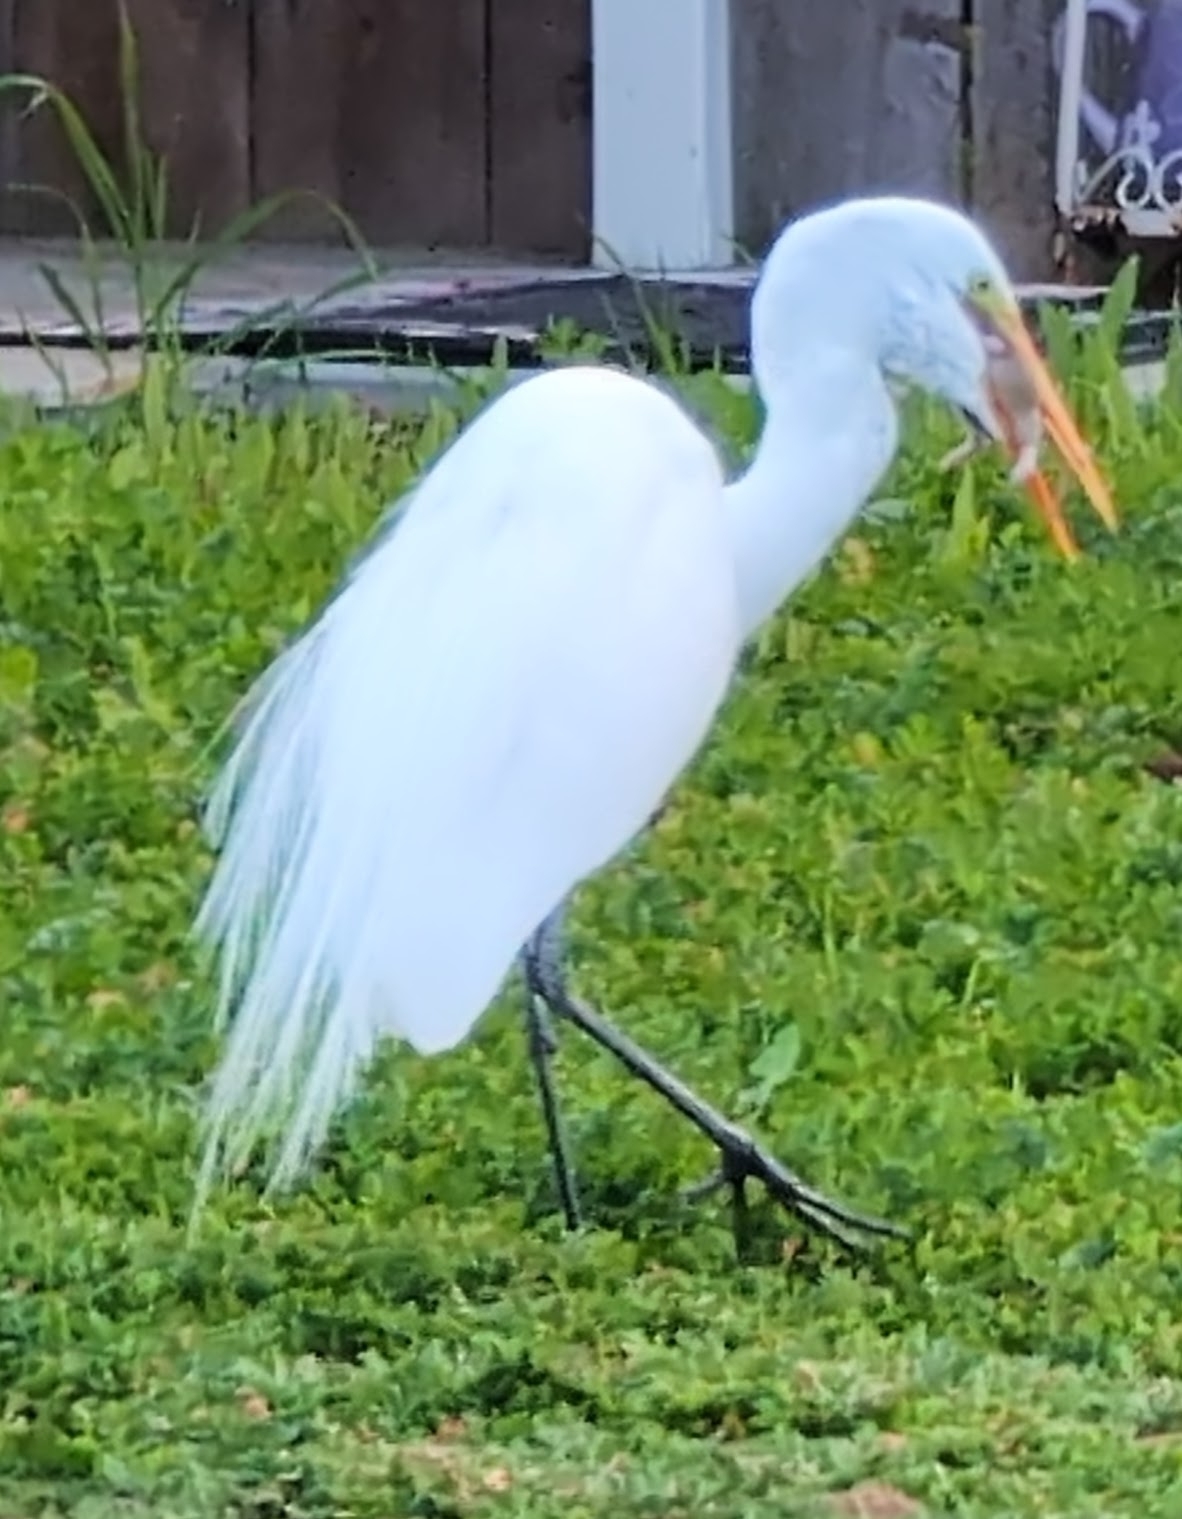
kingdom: Animalia
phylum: Chordata
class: Aves
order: Pelecaniformes
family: Ardeidae
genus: Ardea
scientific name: Ardea alba
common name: Great egret
